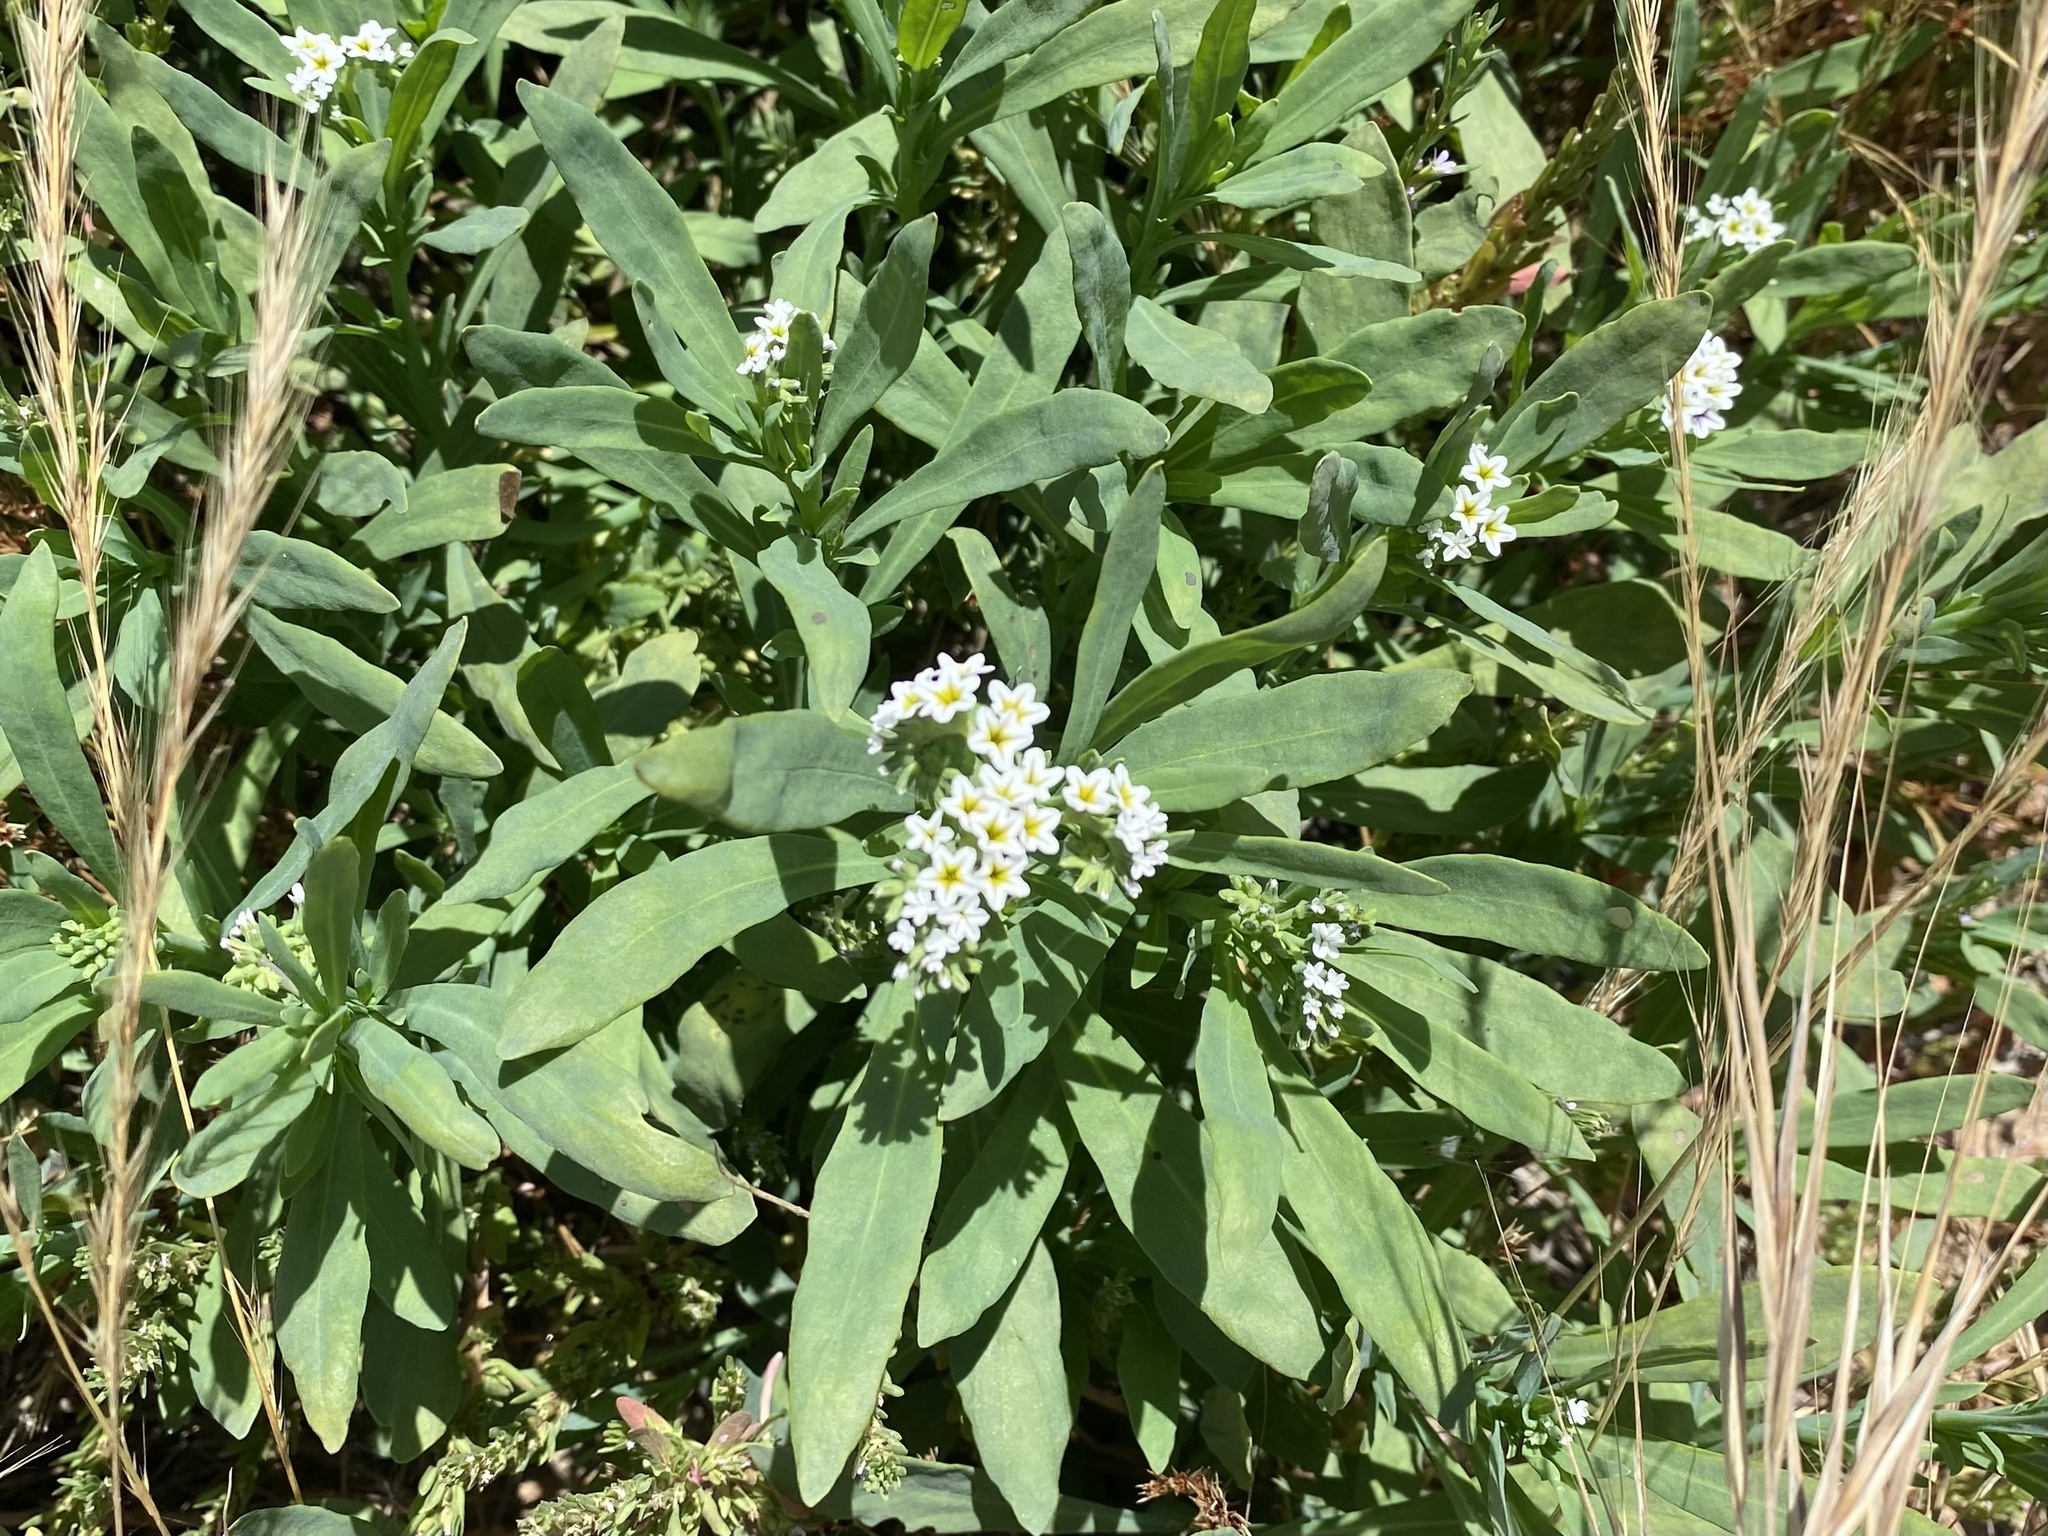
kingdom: Plantae
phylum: Tracheophyta
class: Magnoliopsida
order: Boraginales
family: Heliotropiaceae
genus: Heliotropium
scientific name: Heliotropium curassavicum
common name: Seaside heliotrope
